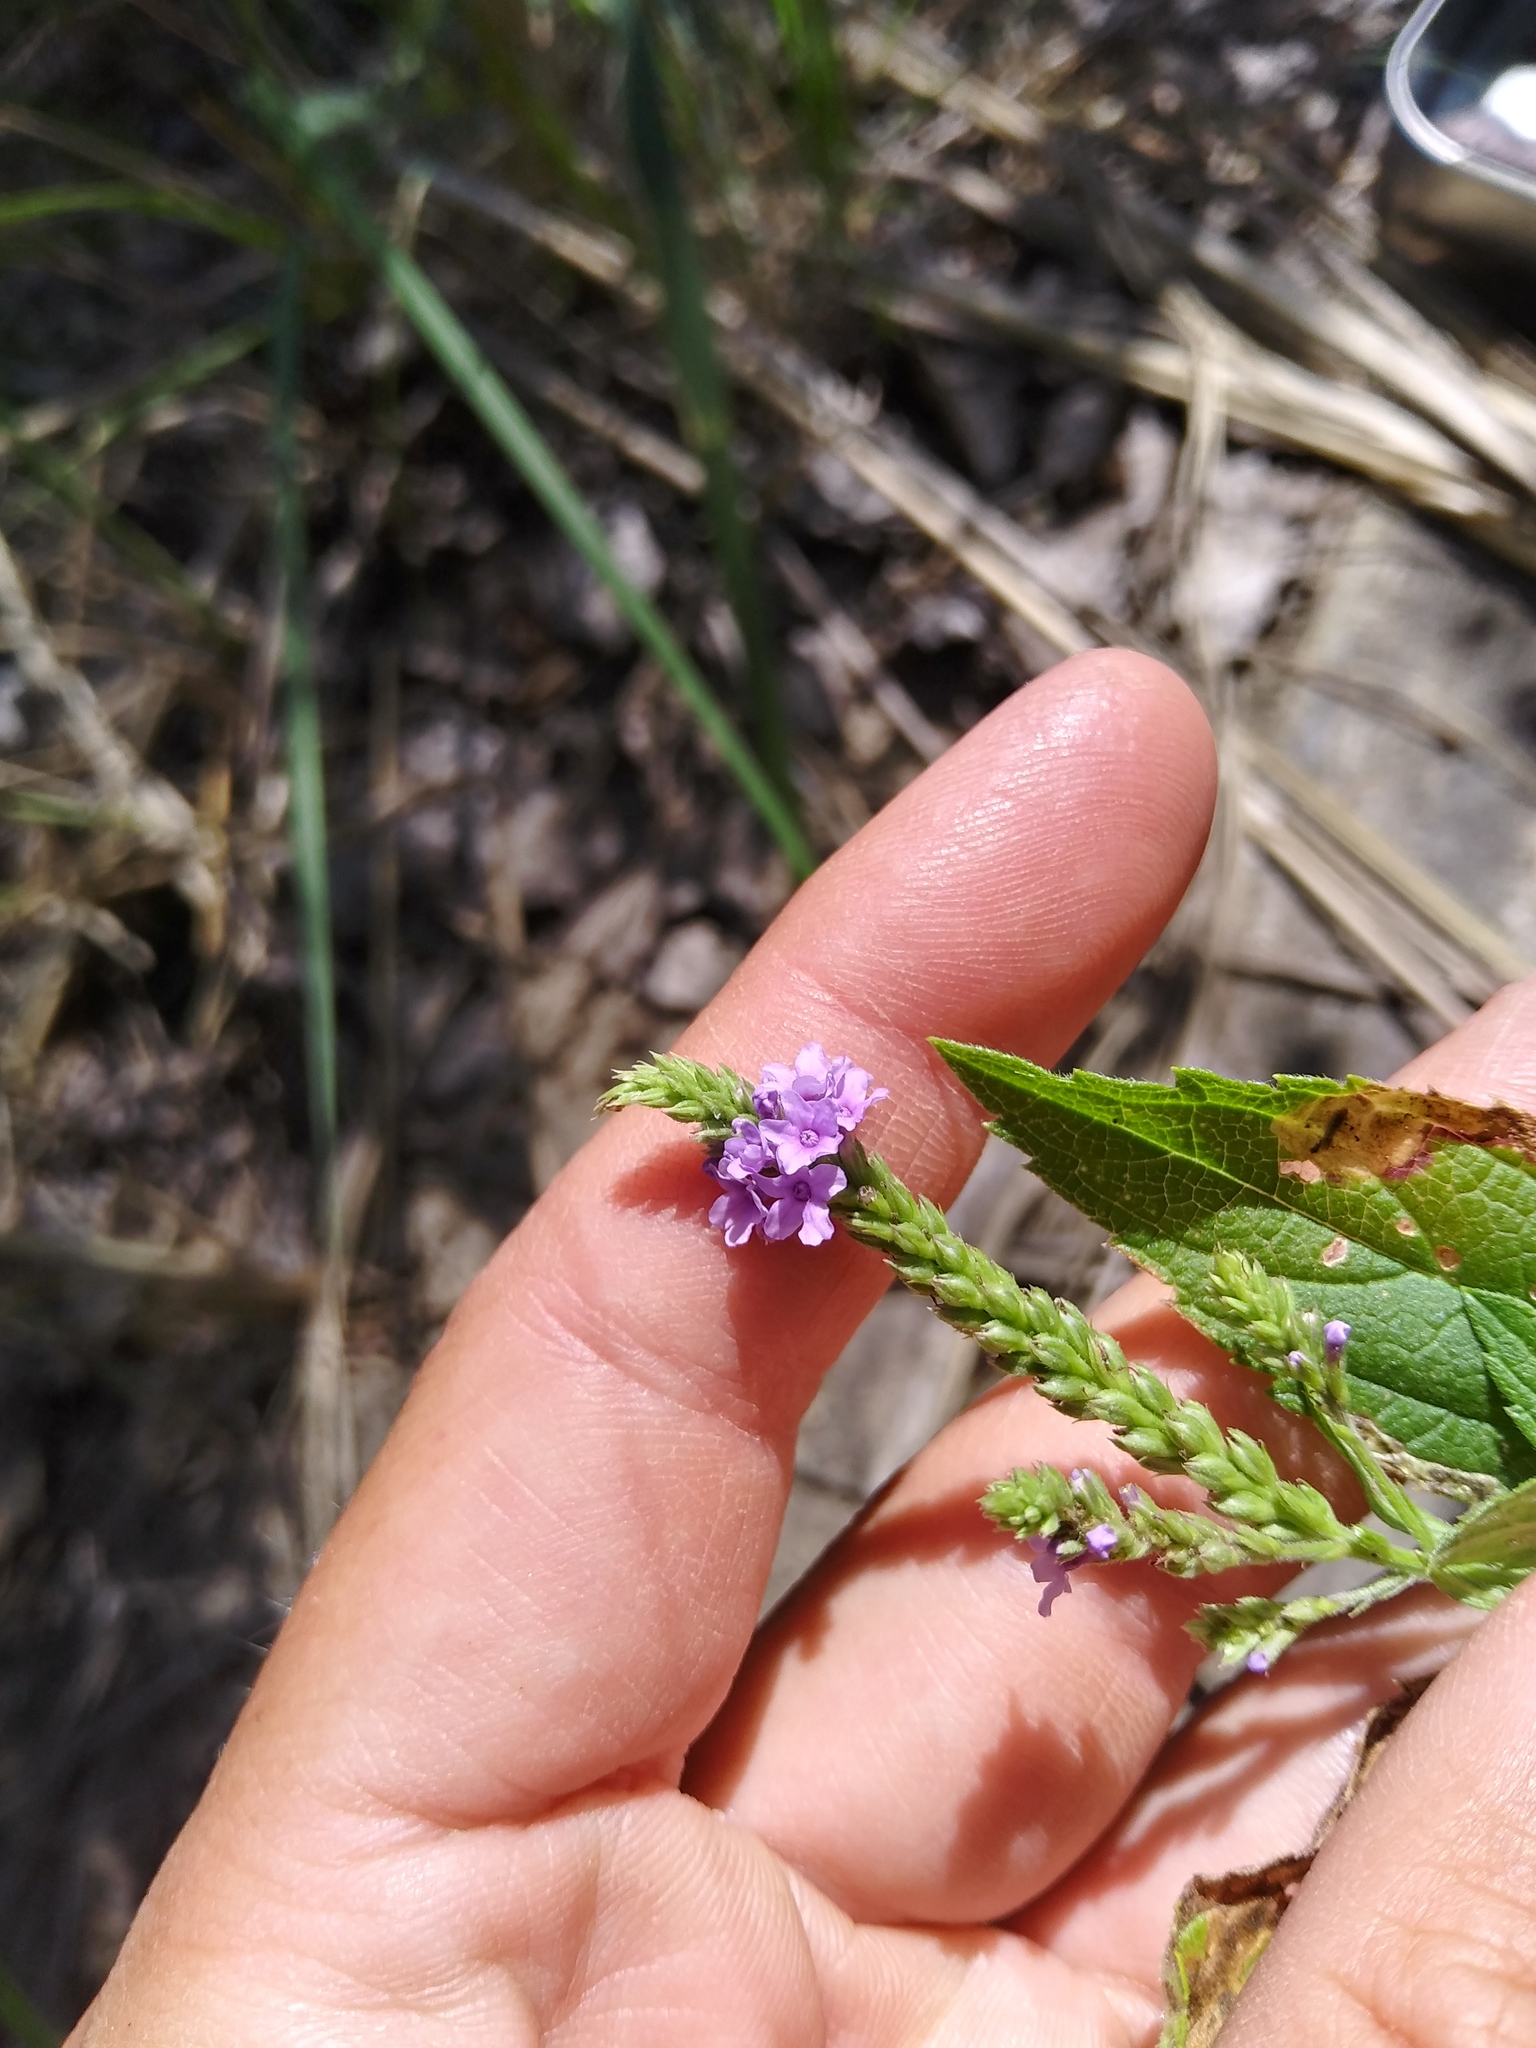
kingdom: Plantae
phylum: Tracheophyta
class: Magnoliopsida
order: Lamiales
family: Verbenaceae
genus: Verbena
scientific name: Verbena hastata
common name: American blue vervain
